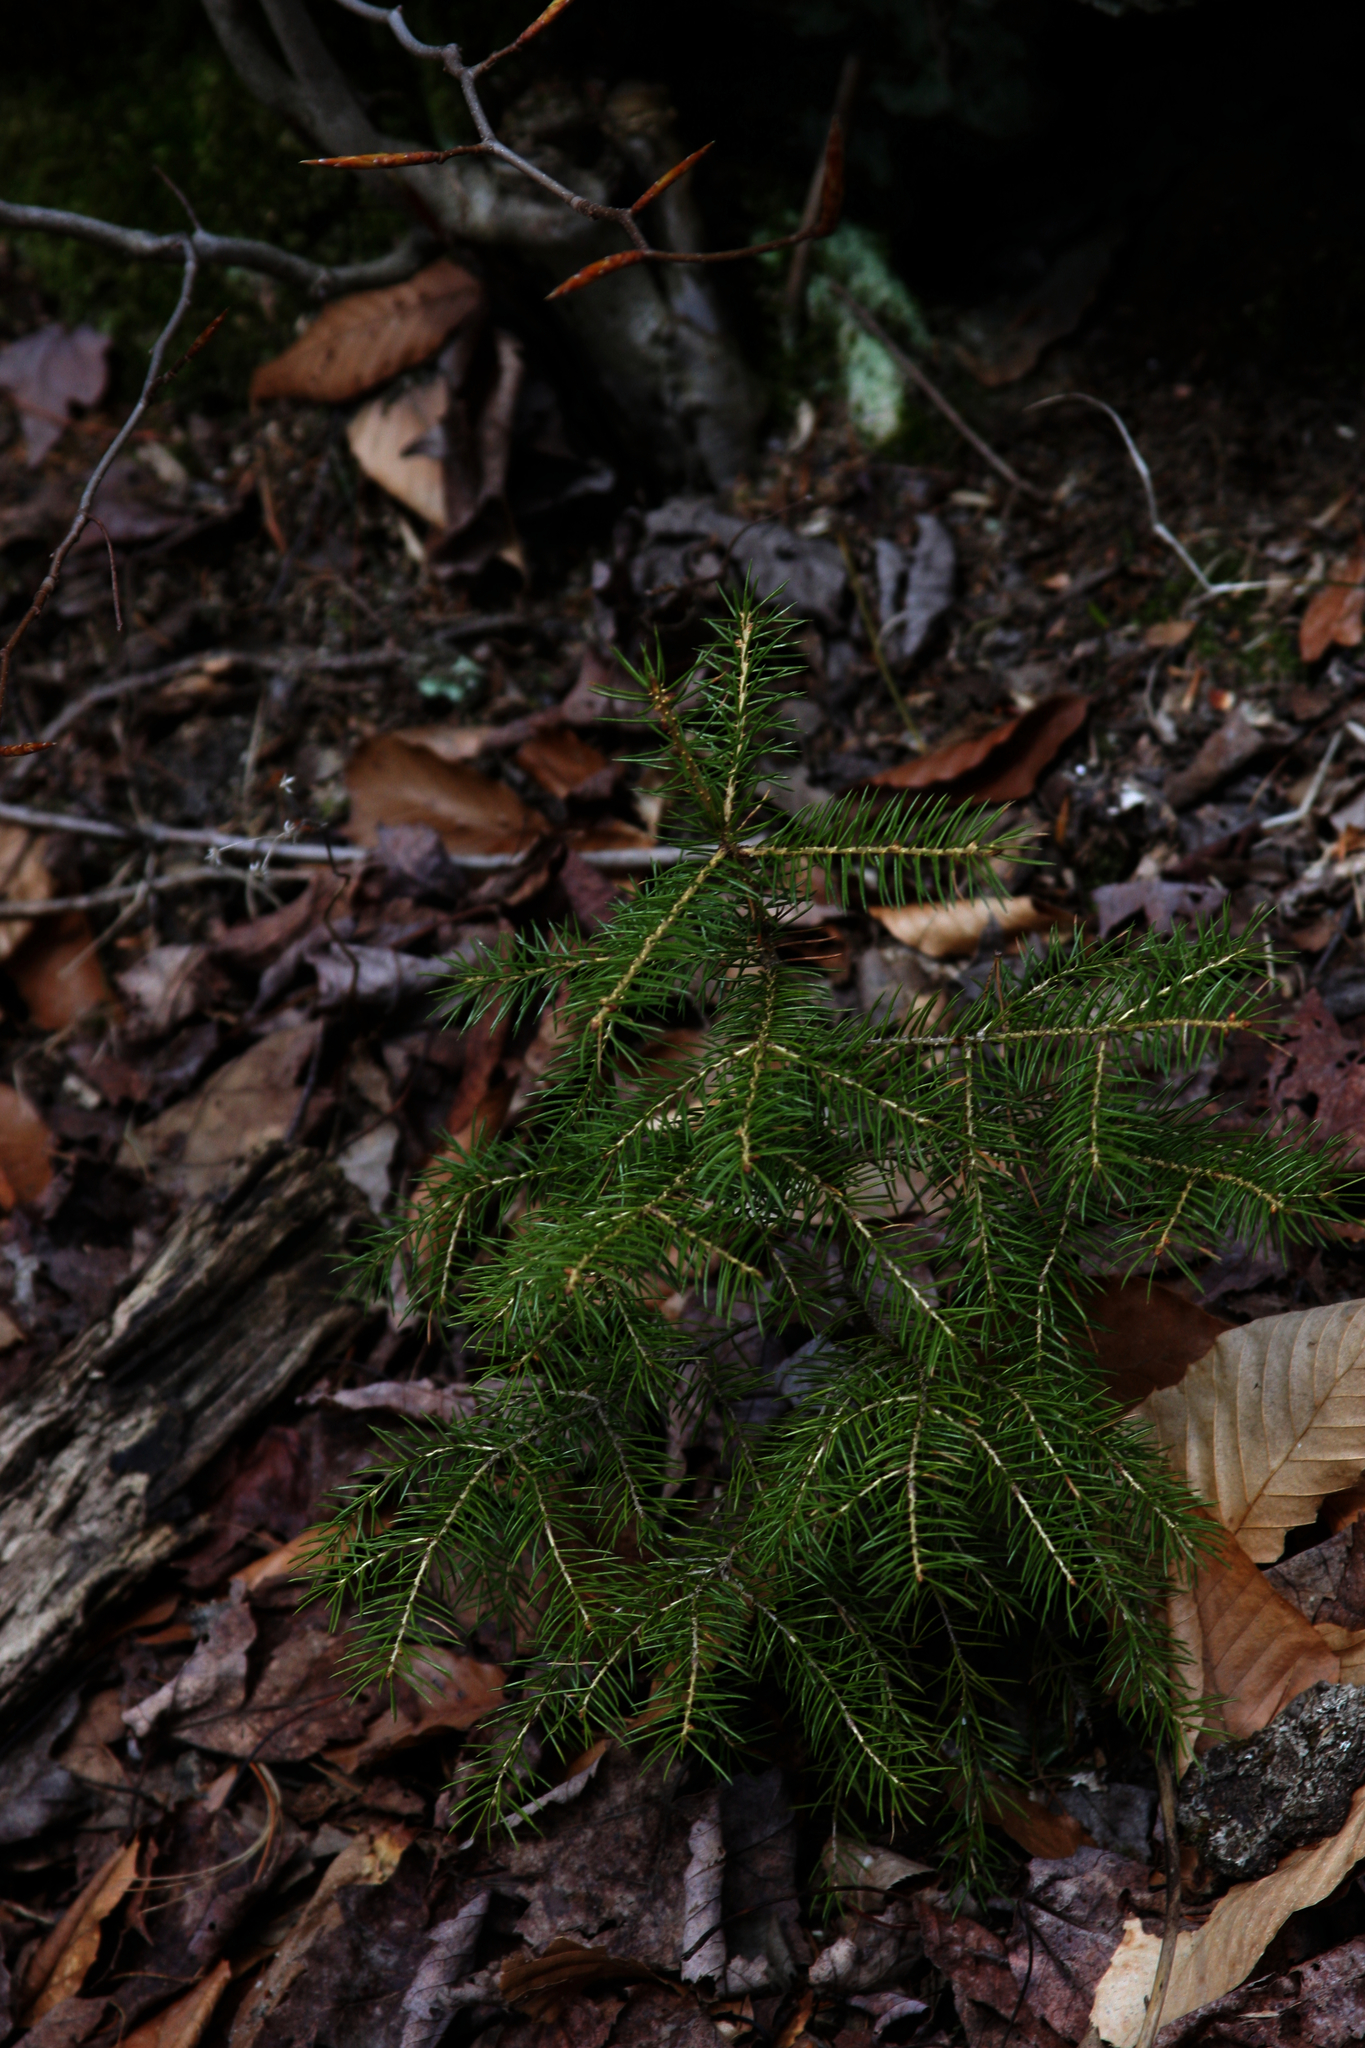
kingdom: Plantae
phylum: Tracheophyta
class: Pinopsida
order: Pinales
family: Pinaceae
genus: Abies
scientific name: Abies balsamea
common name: Balsam fir
